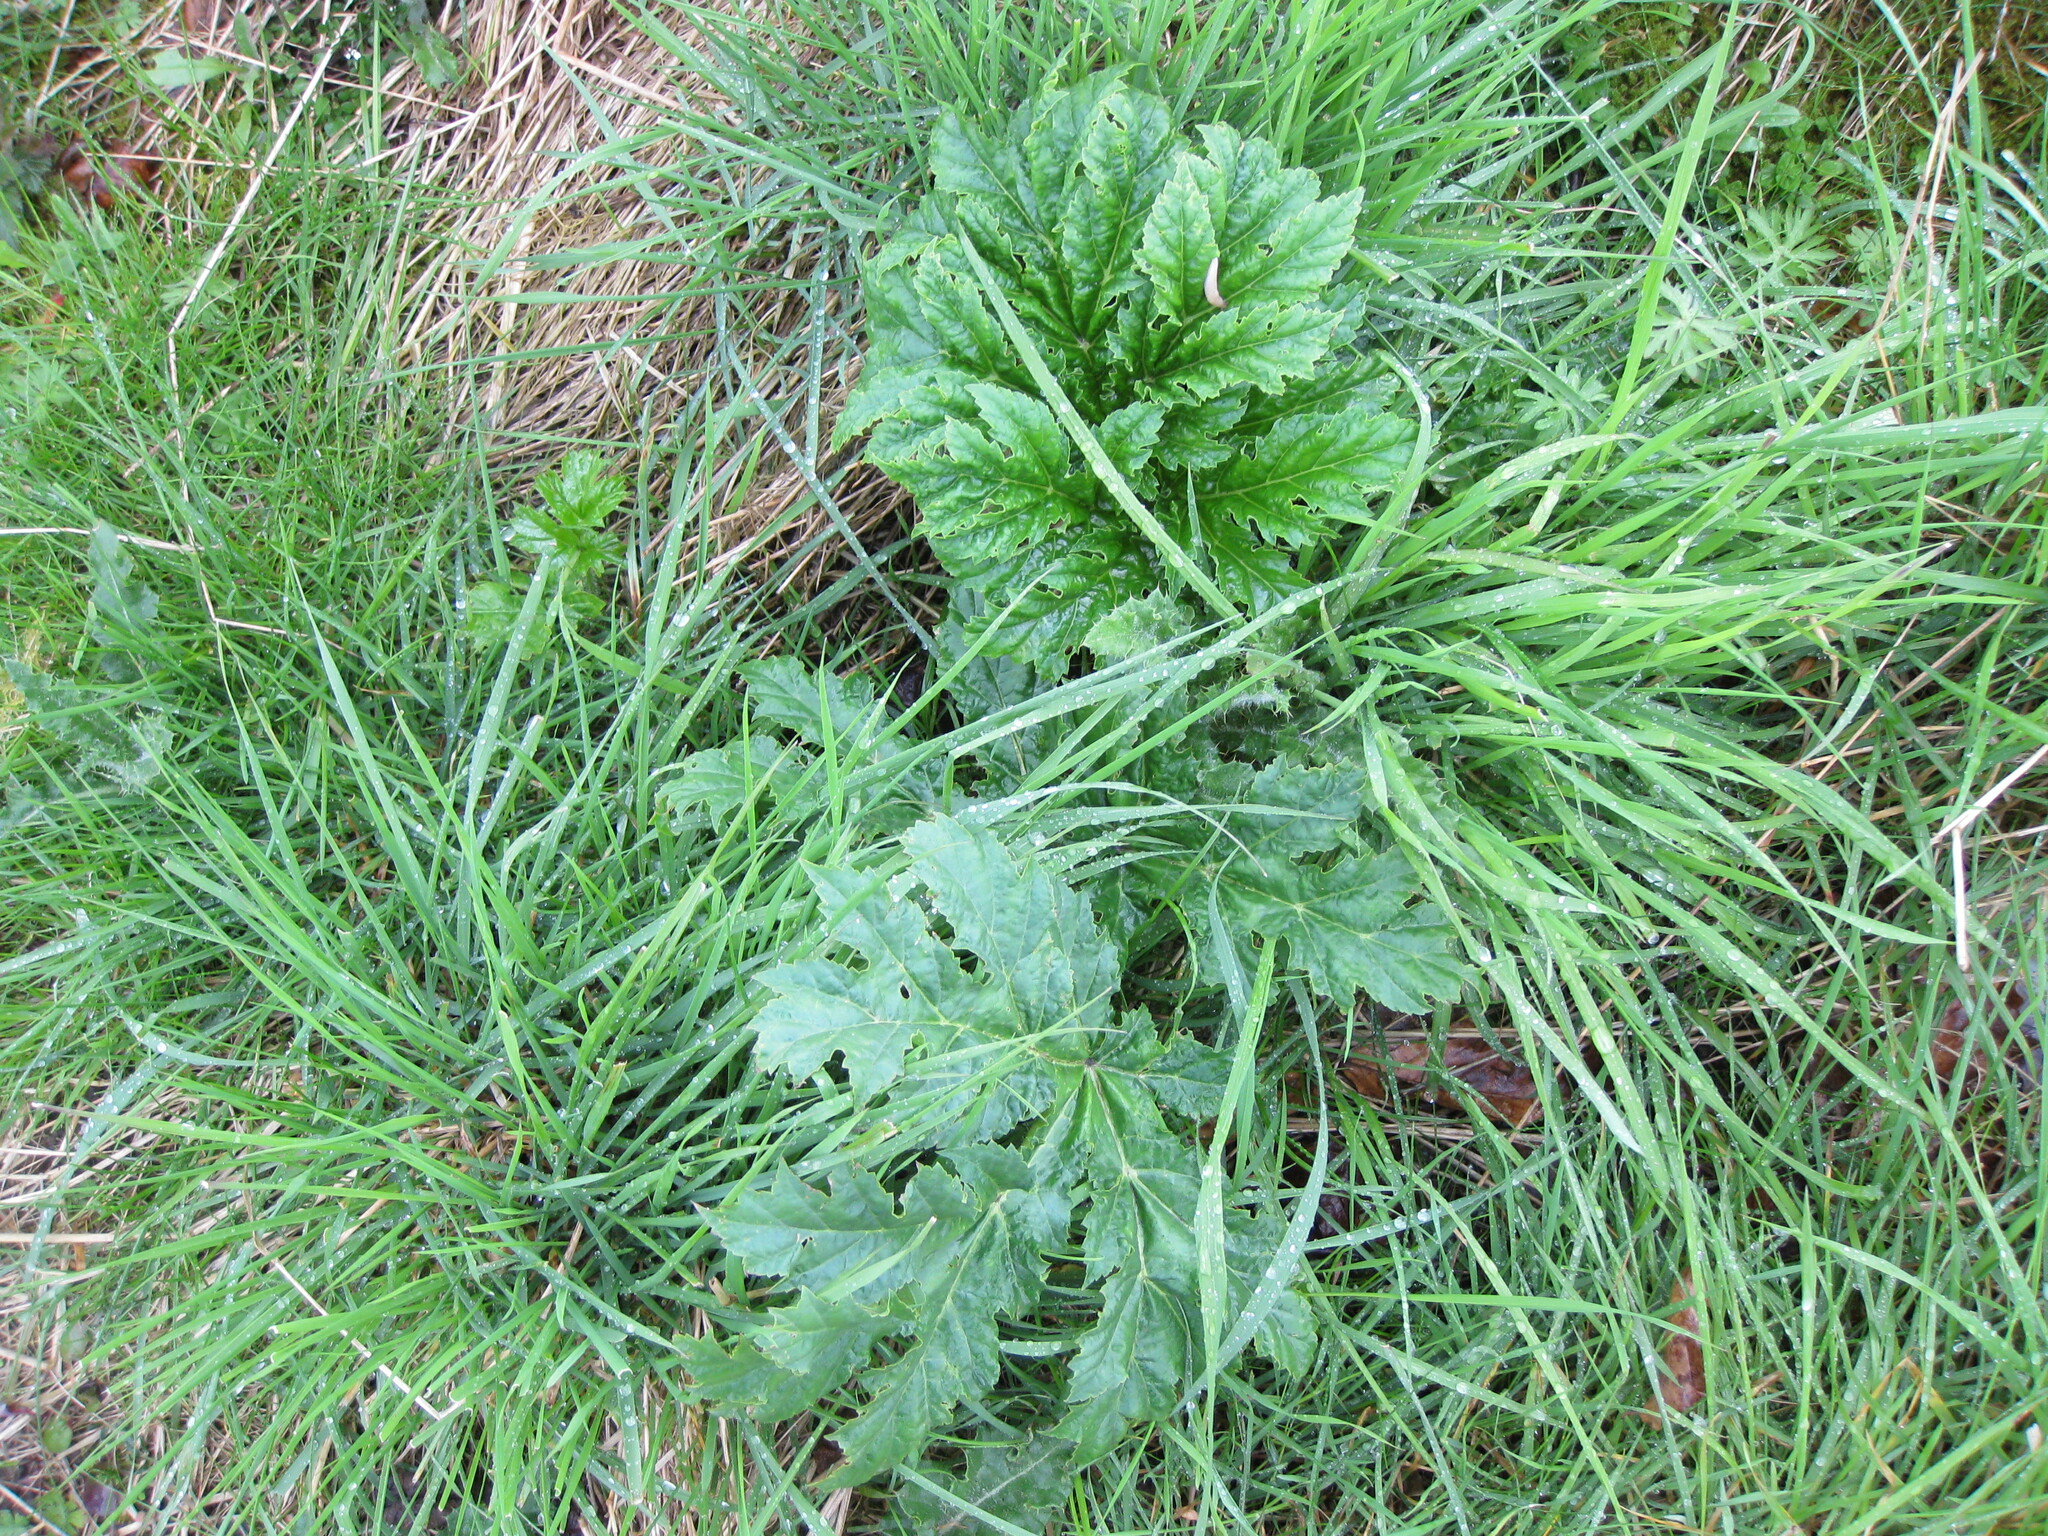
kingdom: Plantae
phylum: Tracheophyta
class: Magnoliopsida
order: Apiales
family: Apiaceae
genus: Heracleum
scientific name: Heracleum mantegazzianum
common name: Giant hogweed
